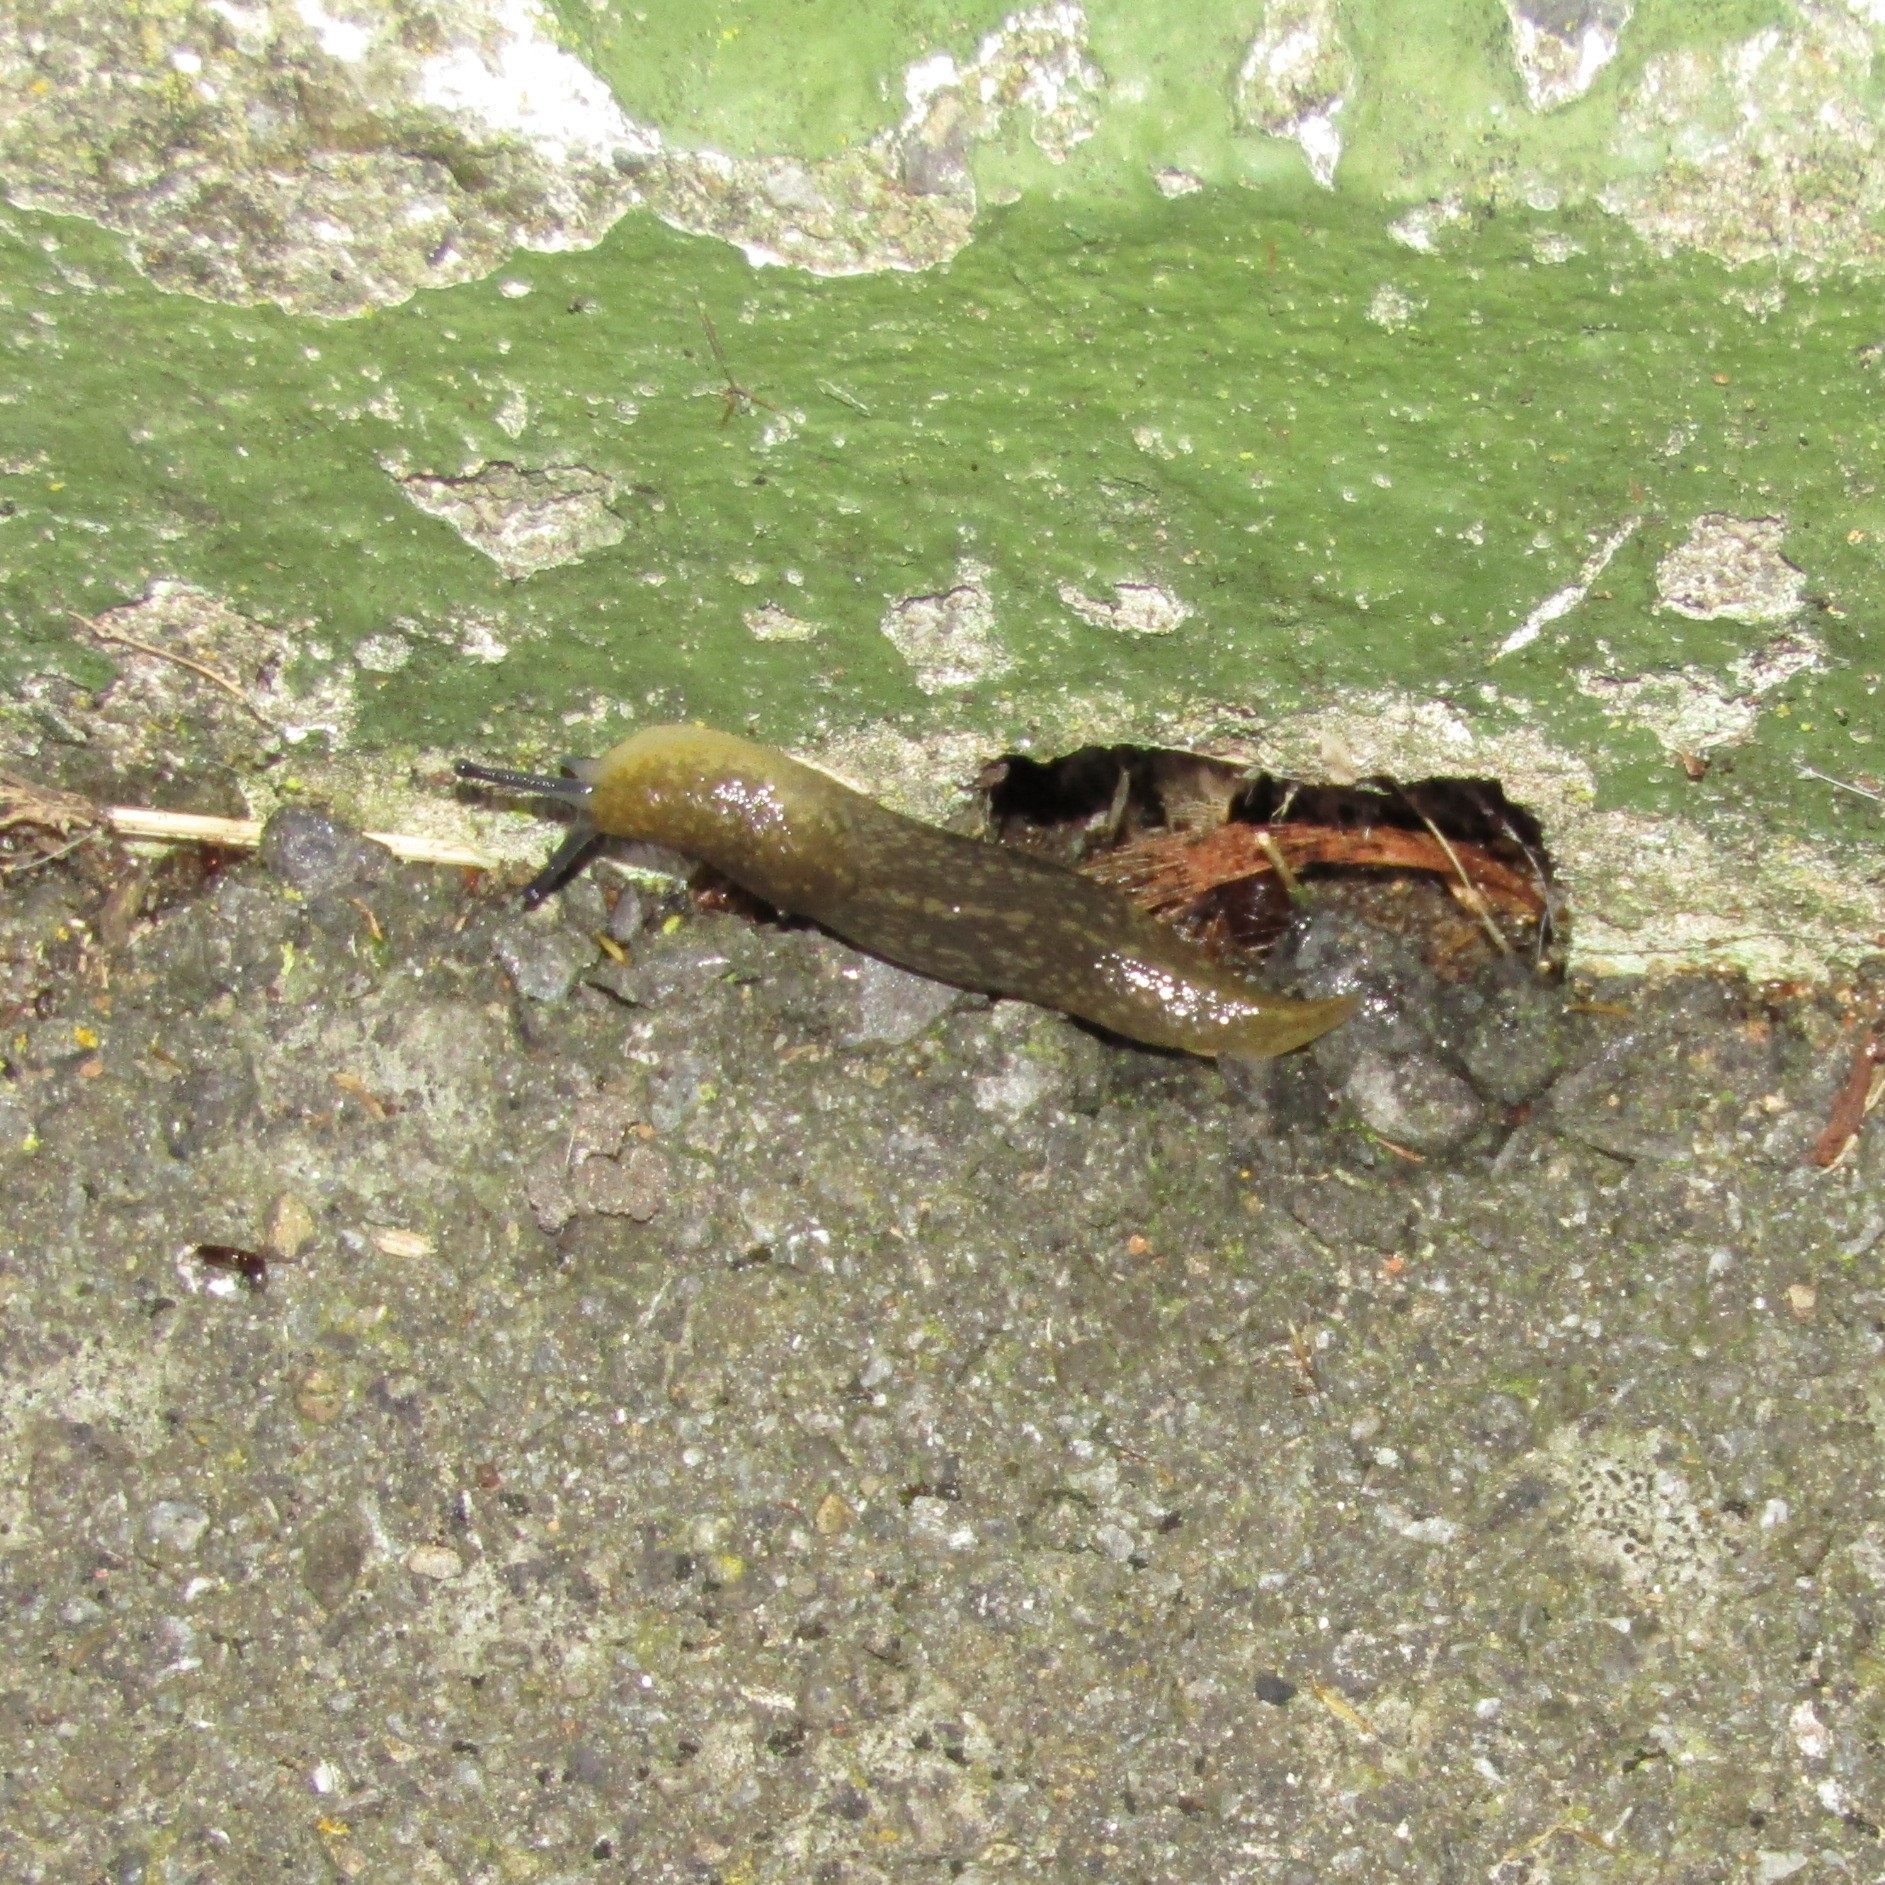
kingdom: Animalia
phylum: Mollusca
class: Gastropoda
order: Stylommatophora
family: Limacidae
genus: Limacus
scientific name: Limacus flavus
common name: Yellow gardenslug
